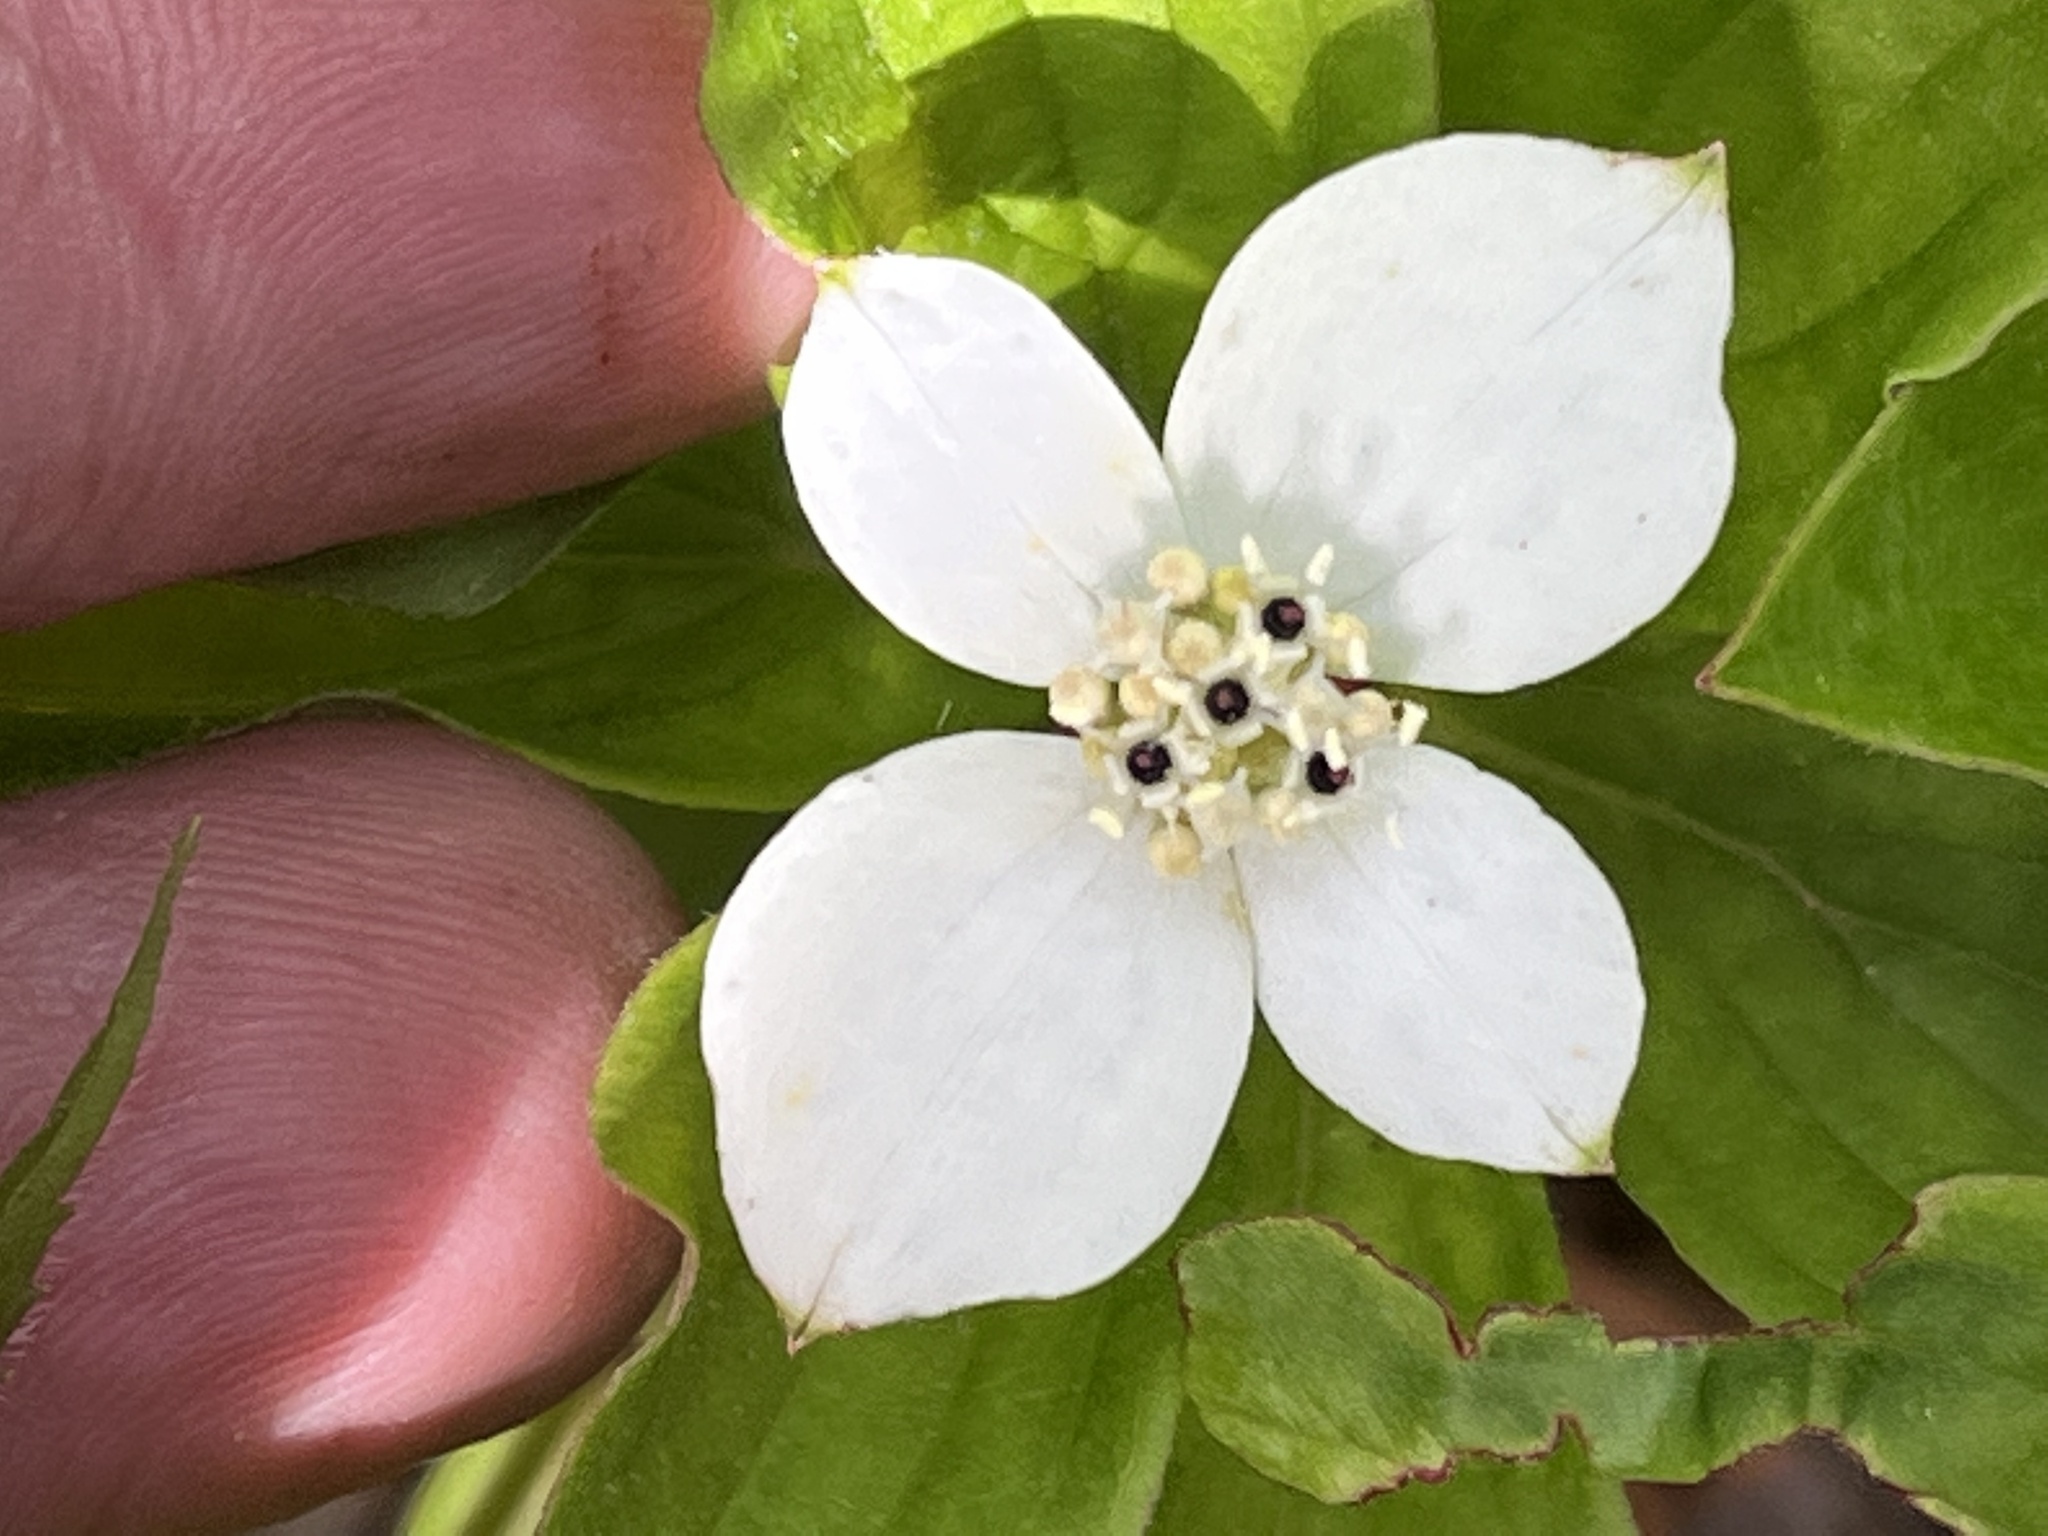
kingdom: Plantae
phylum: Tracheophyta
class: Magnoliopsida
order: Cornales
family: Cornaceae
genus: Cornus
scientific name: Cornus canadensis
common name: Creeping dogwood
